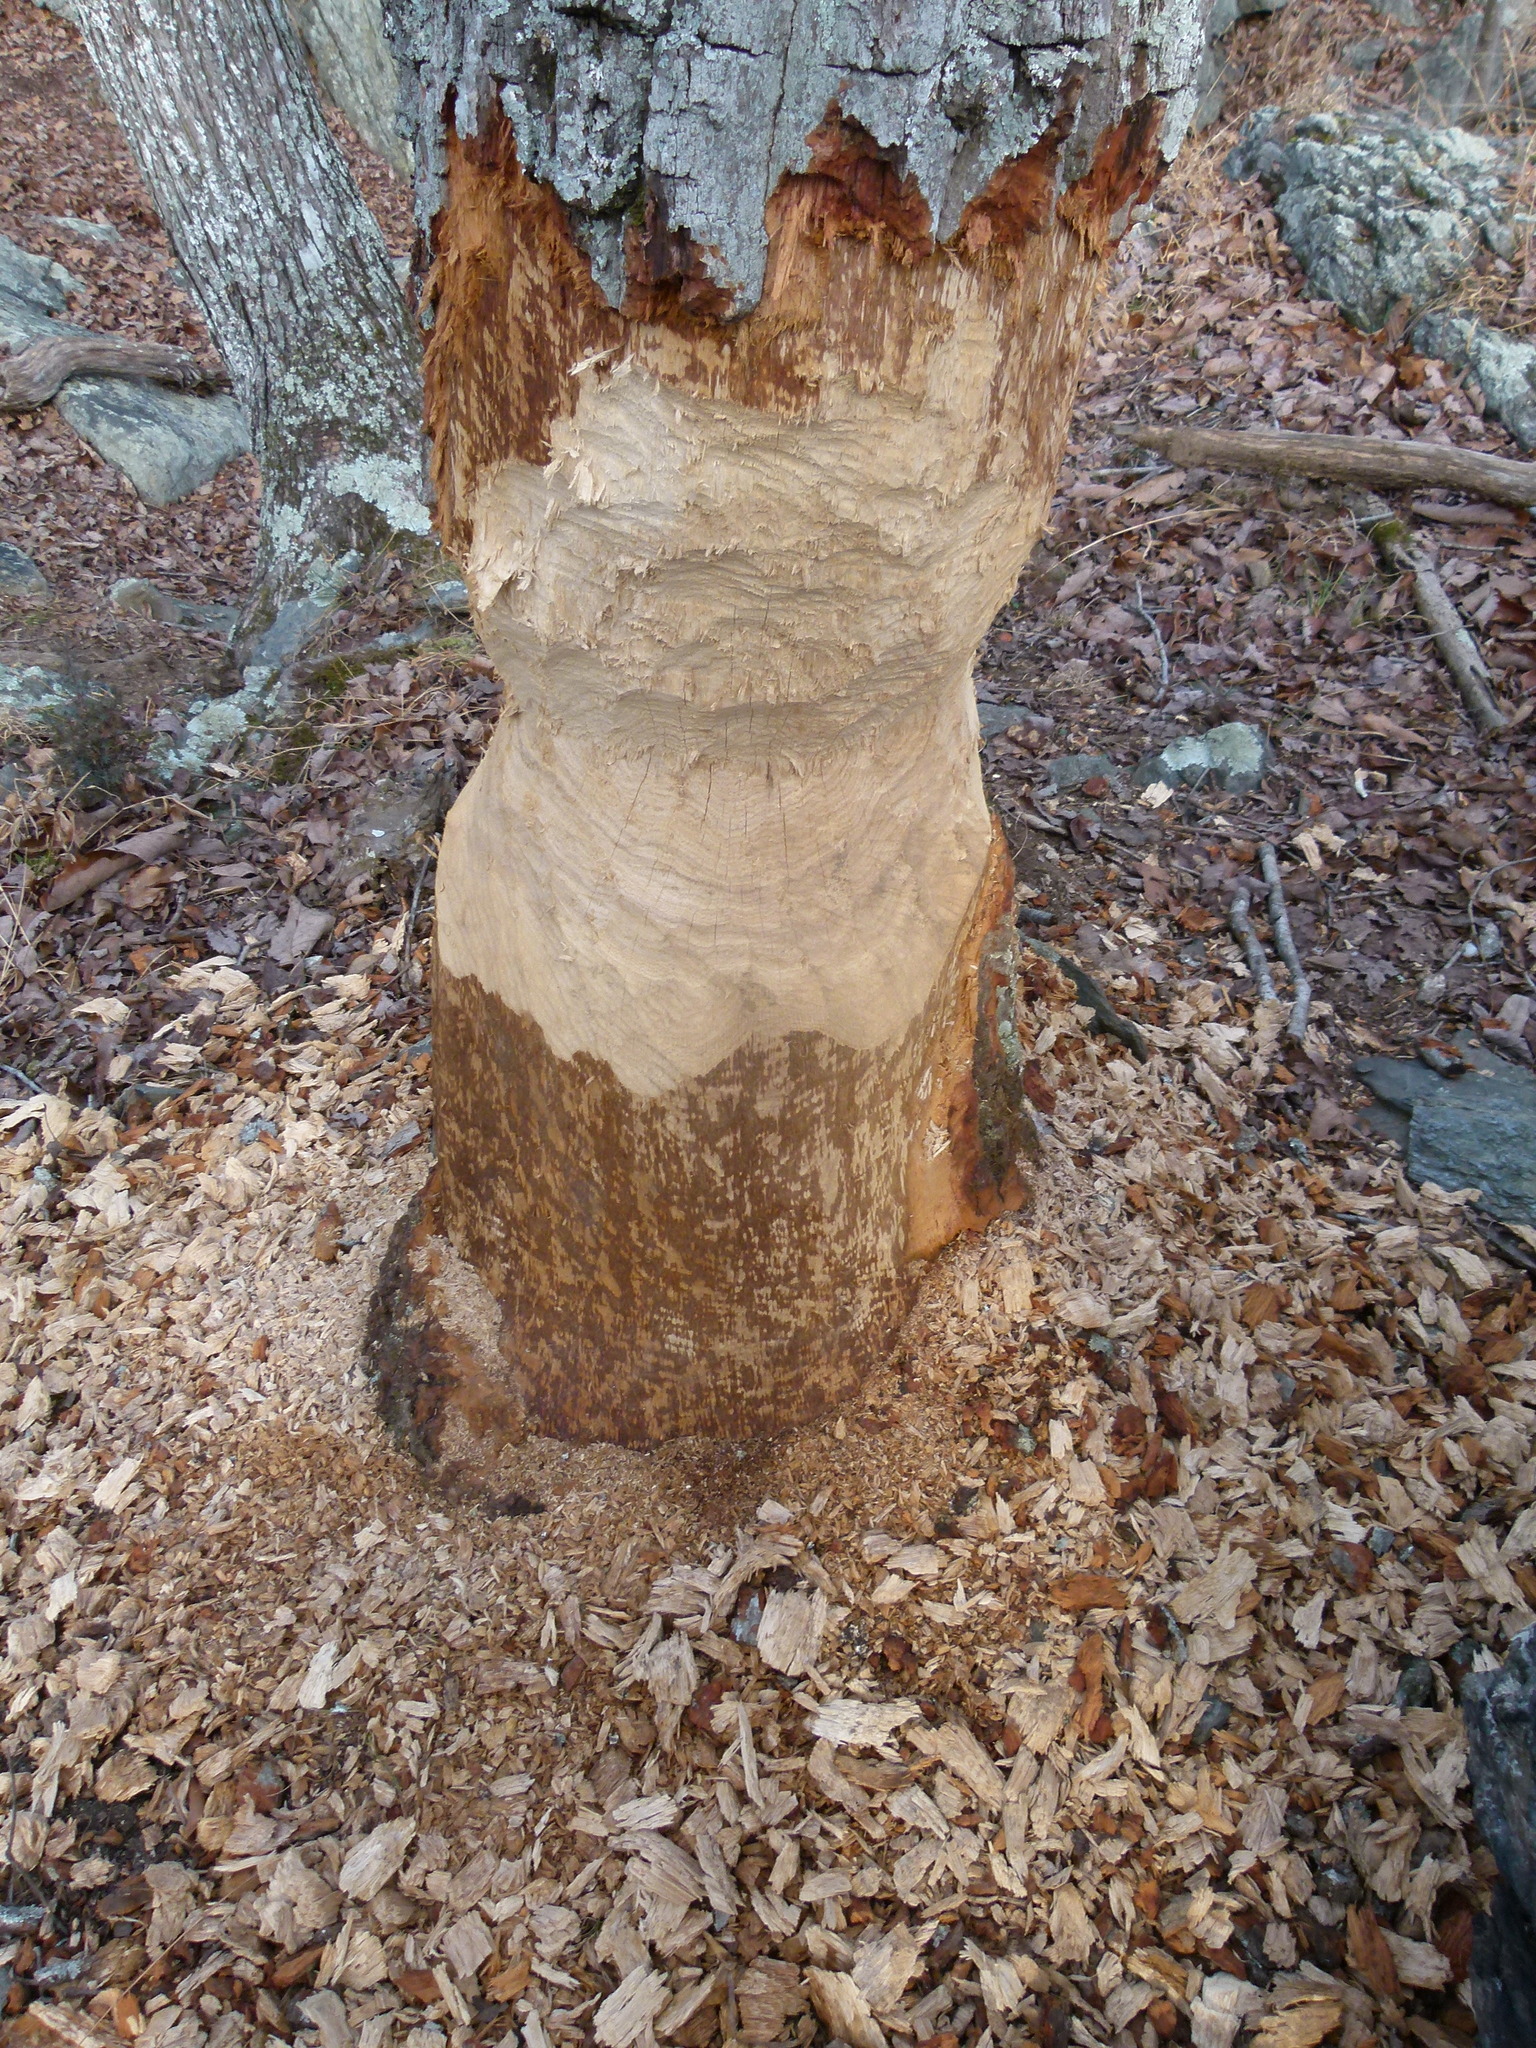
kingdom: Animalia
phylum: Chordata
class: Mammalia
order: Rodentia
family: Castoridae
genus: Castor
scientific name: Castor canadensis
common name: American beaver
